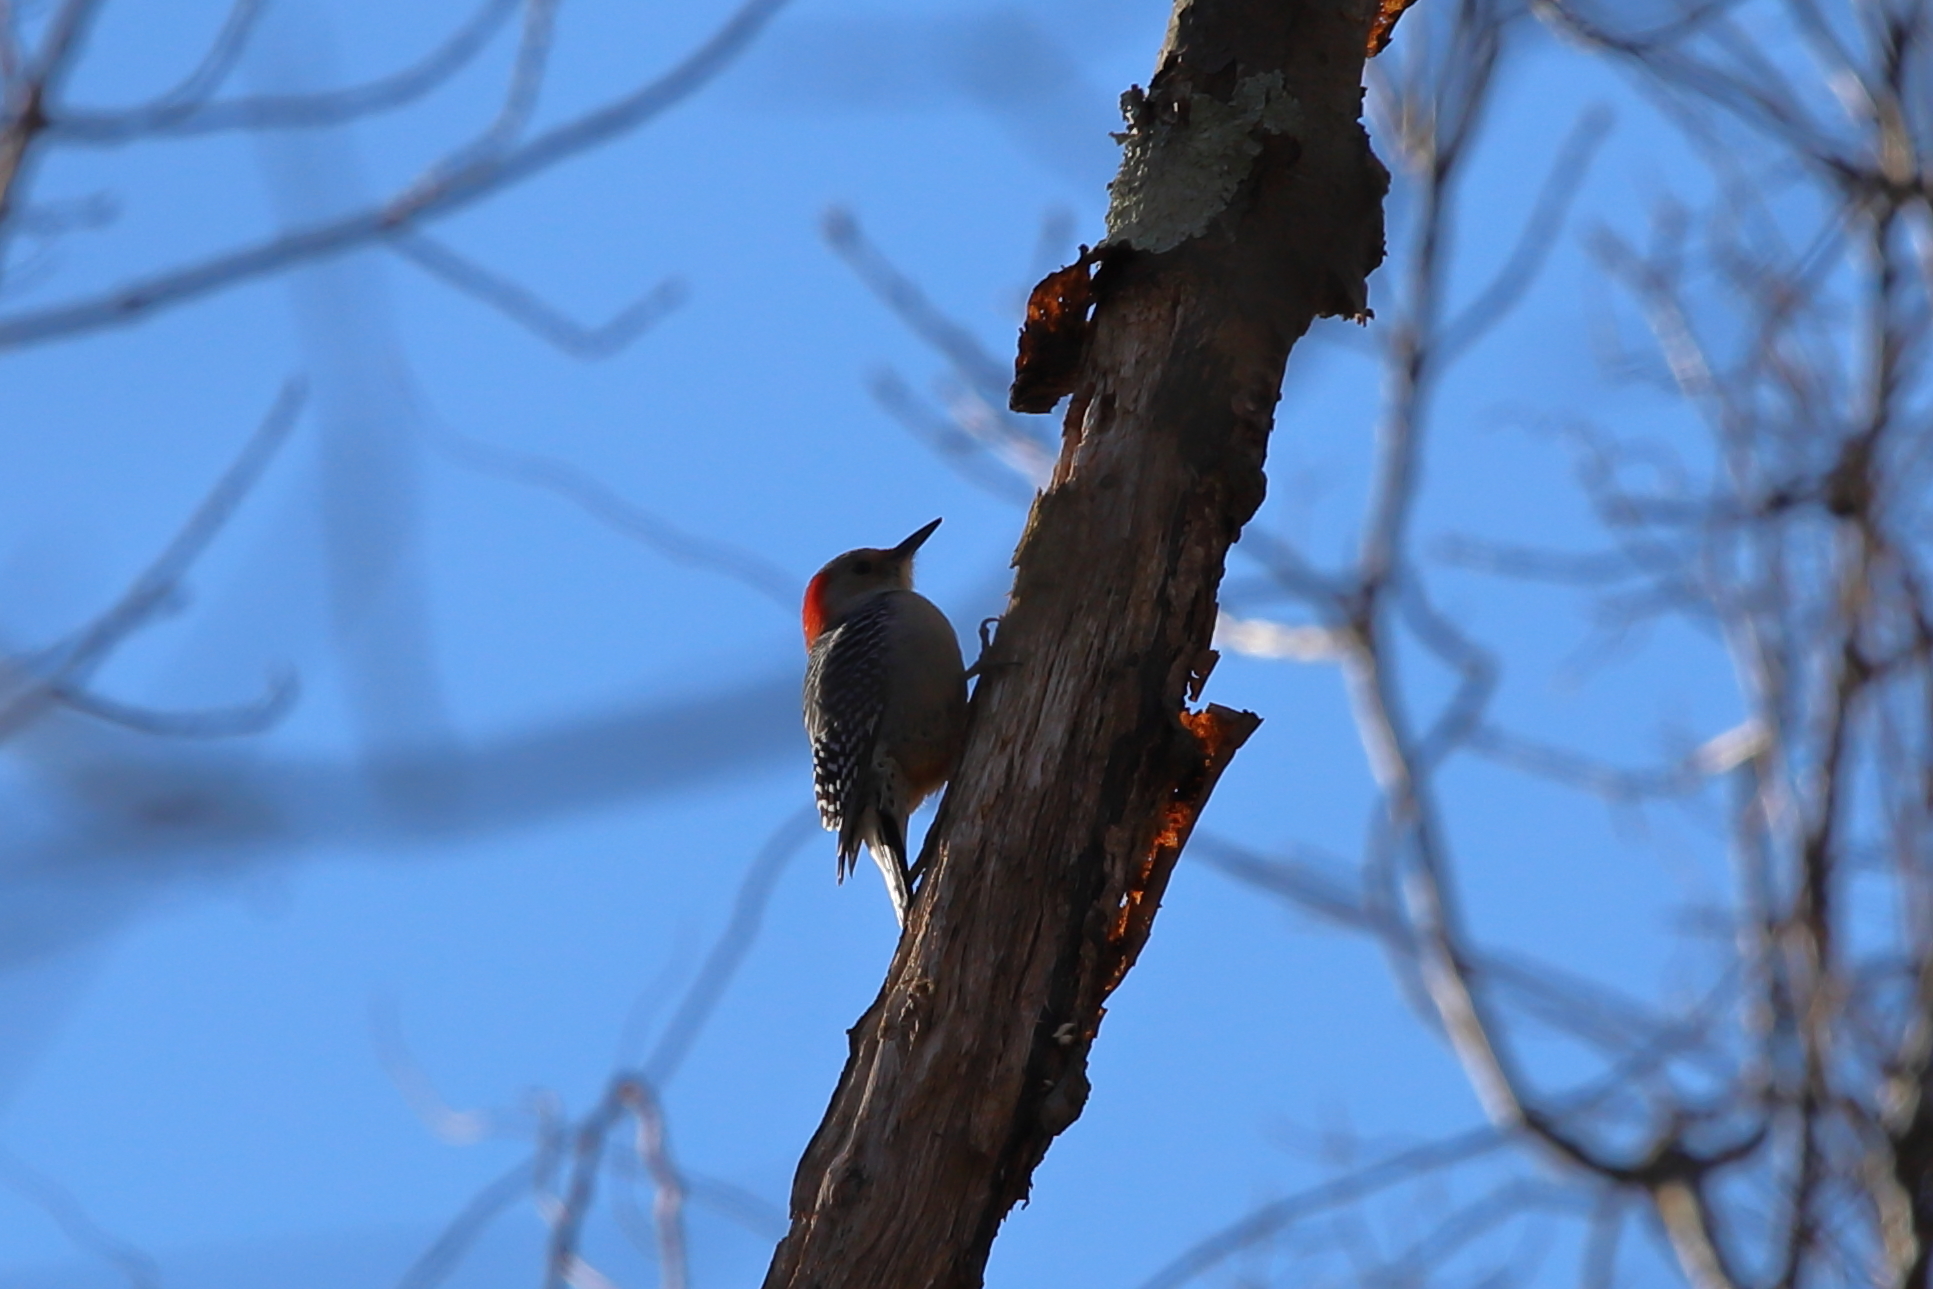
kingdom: Animalia
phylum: Chordata
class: Aves
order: Piciformes
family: Picidae
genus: Melanerpes
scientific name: Melanerpes carolinus
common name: Red-bellied woodpecker
